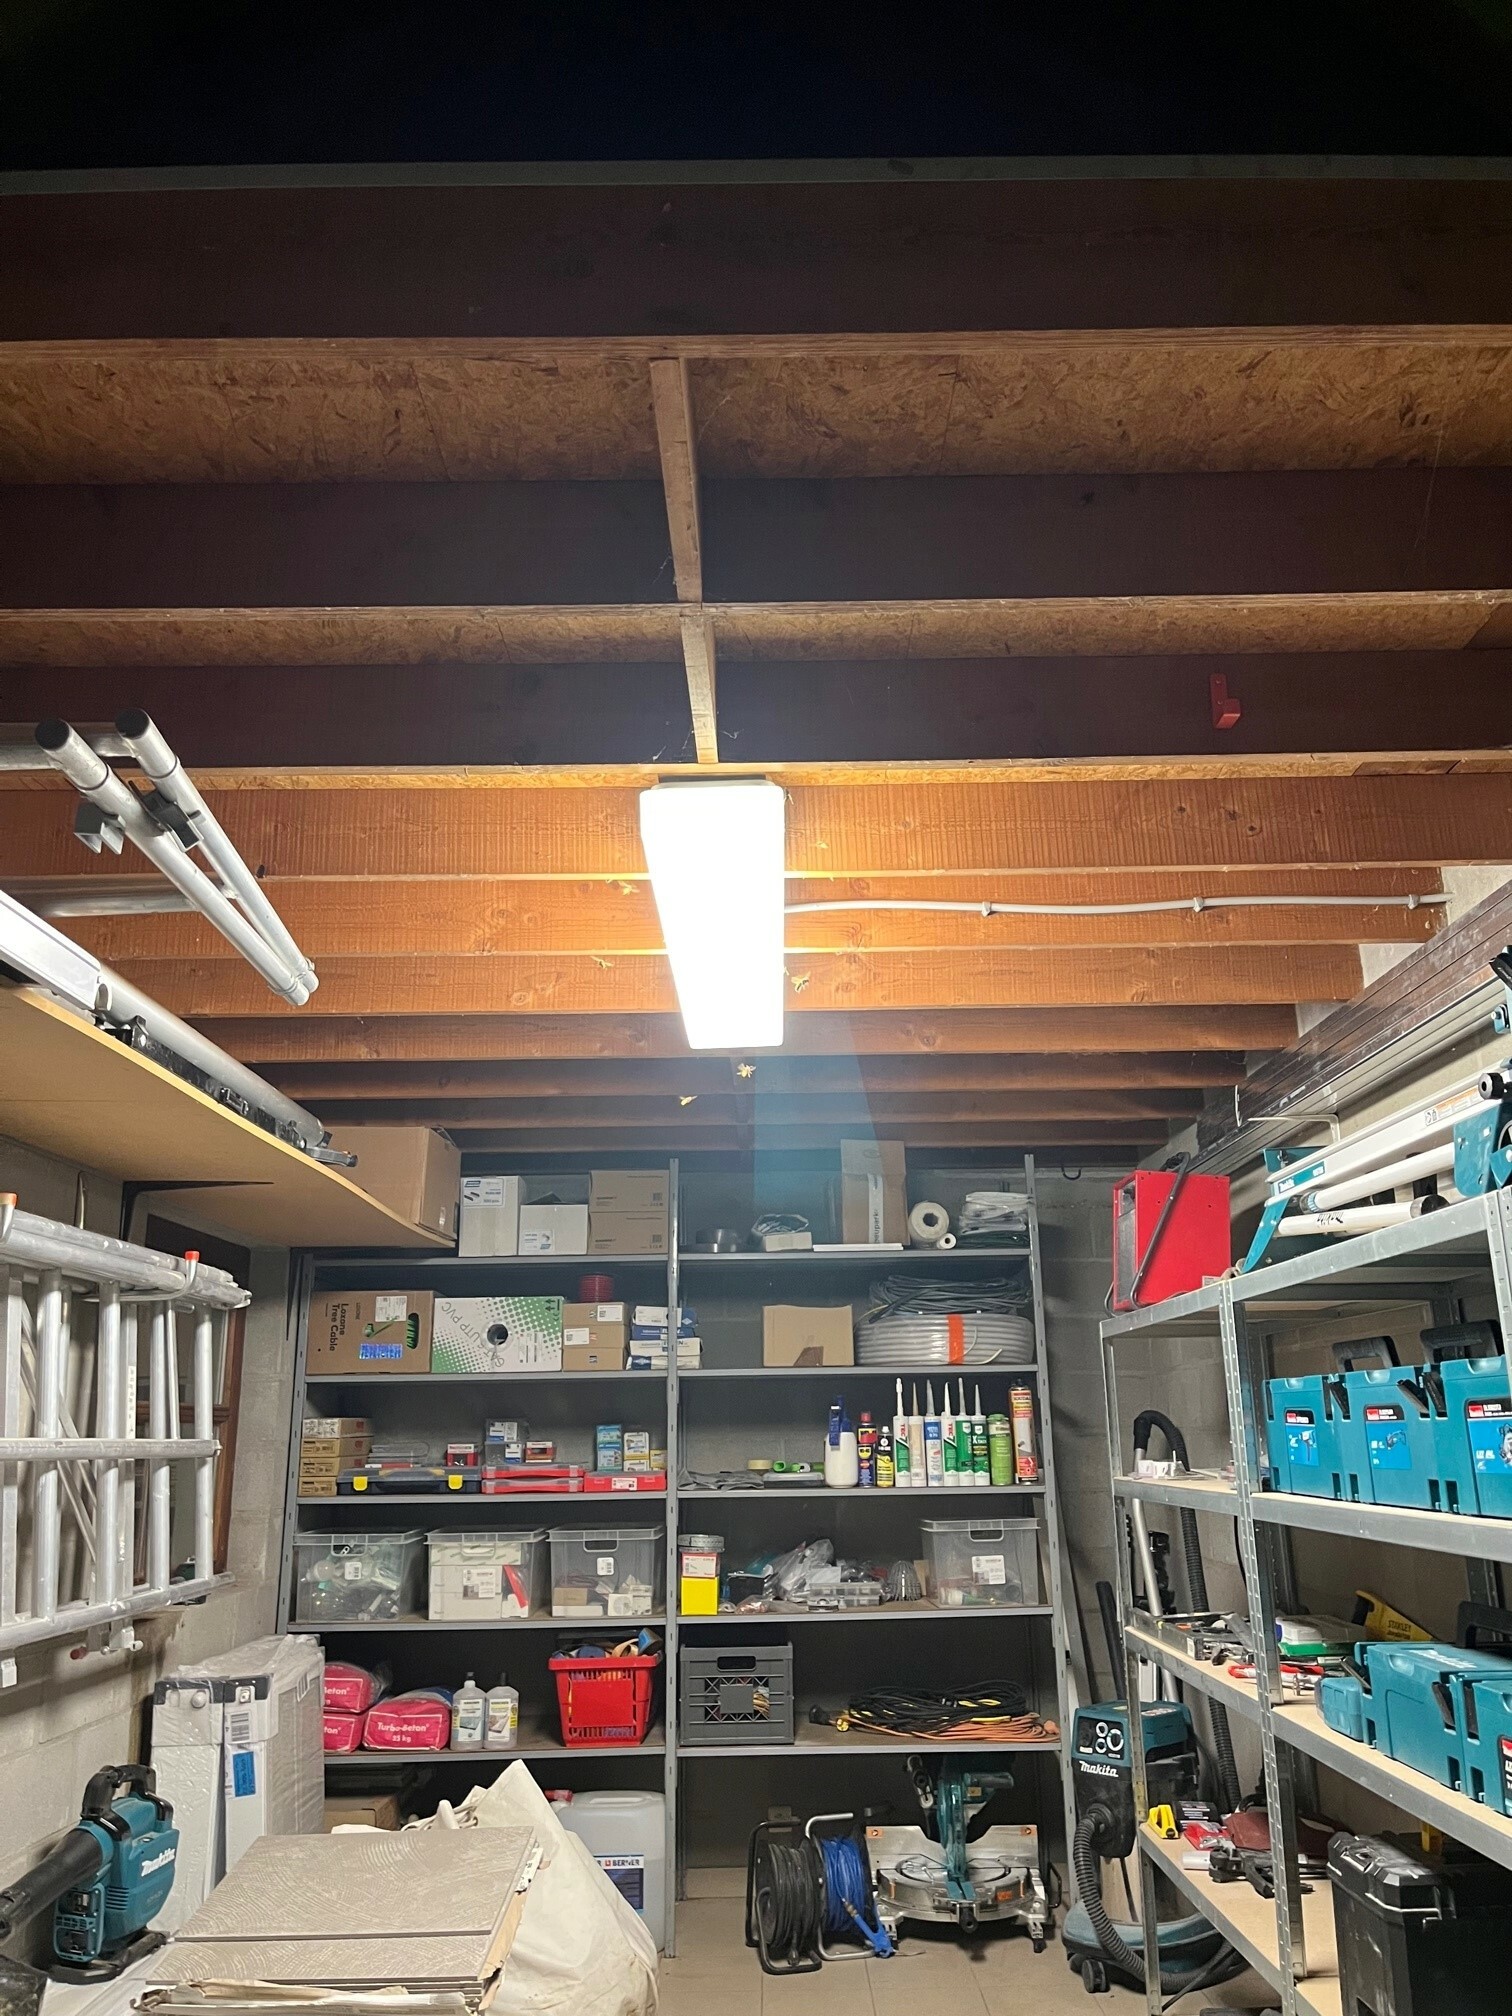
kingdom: Animalia
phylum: Arthropoda
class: Insecta
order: Hymenoptera
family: Vespidae
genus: Vespa
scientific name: Vespa crabro
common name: Hornet
